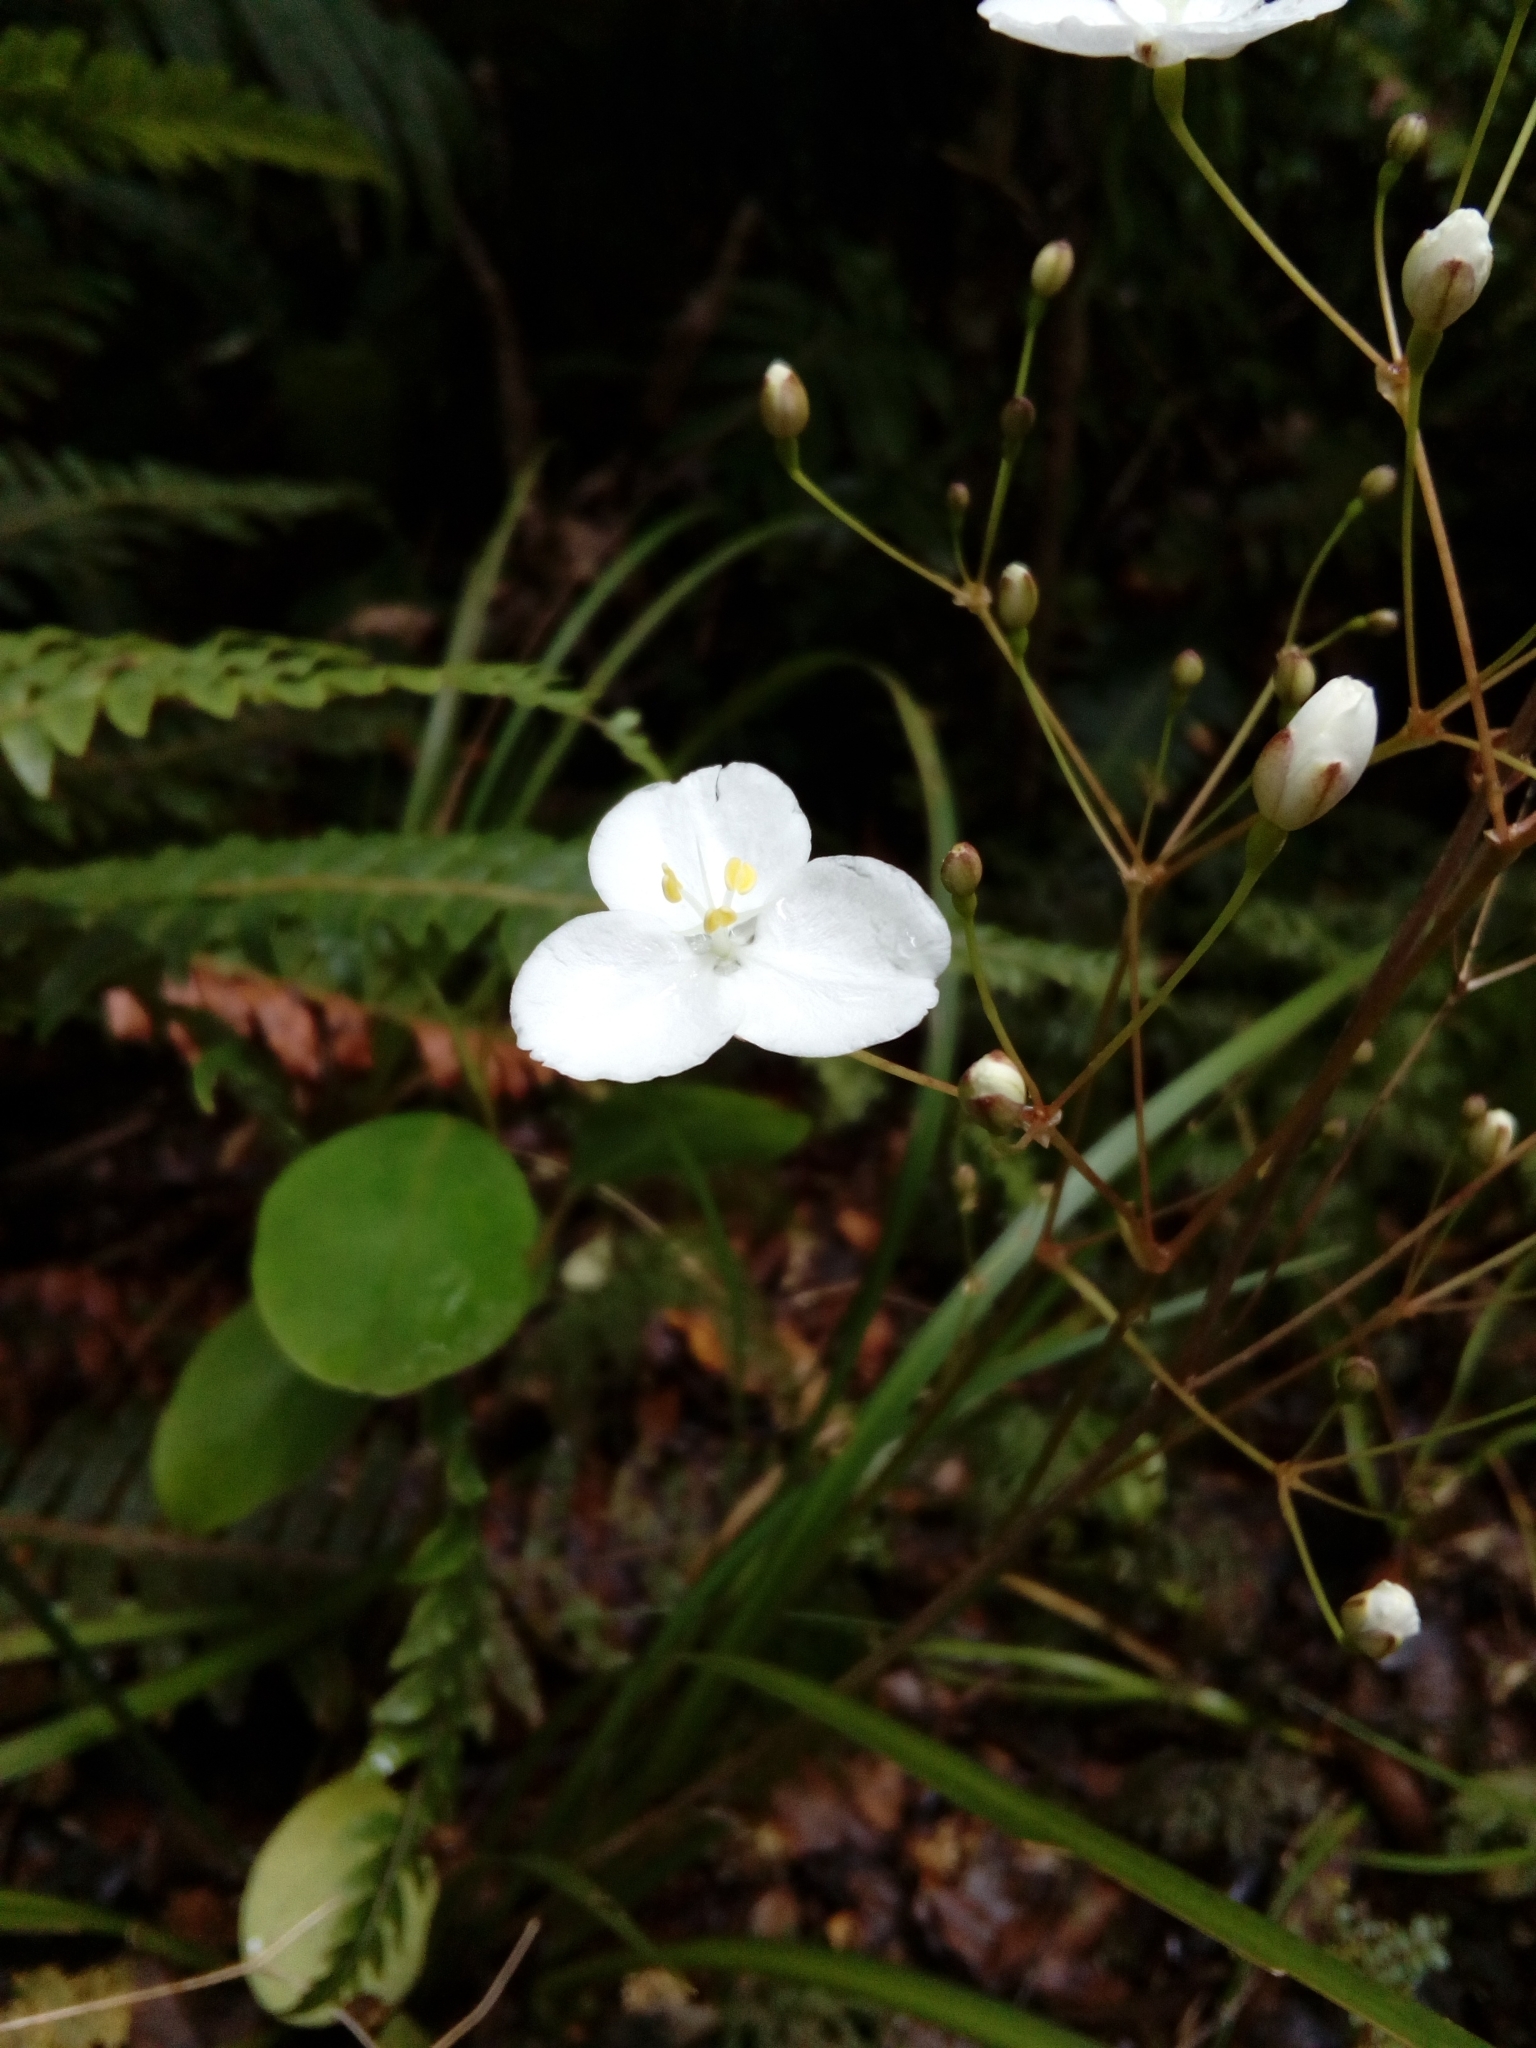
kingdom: Plantae
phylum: Tracheophyta
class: Liliopsida
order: Asparagales
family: Iridaceae
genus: Libertia
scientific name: Libertia ixioides
